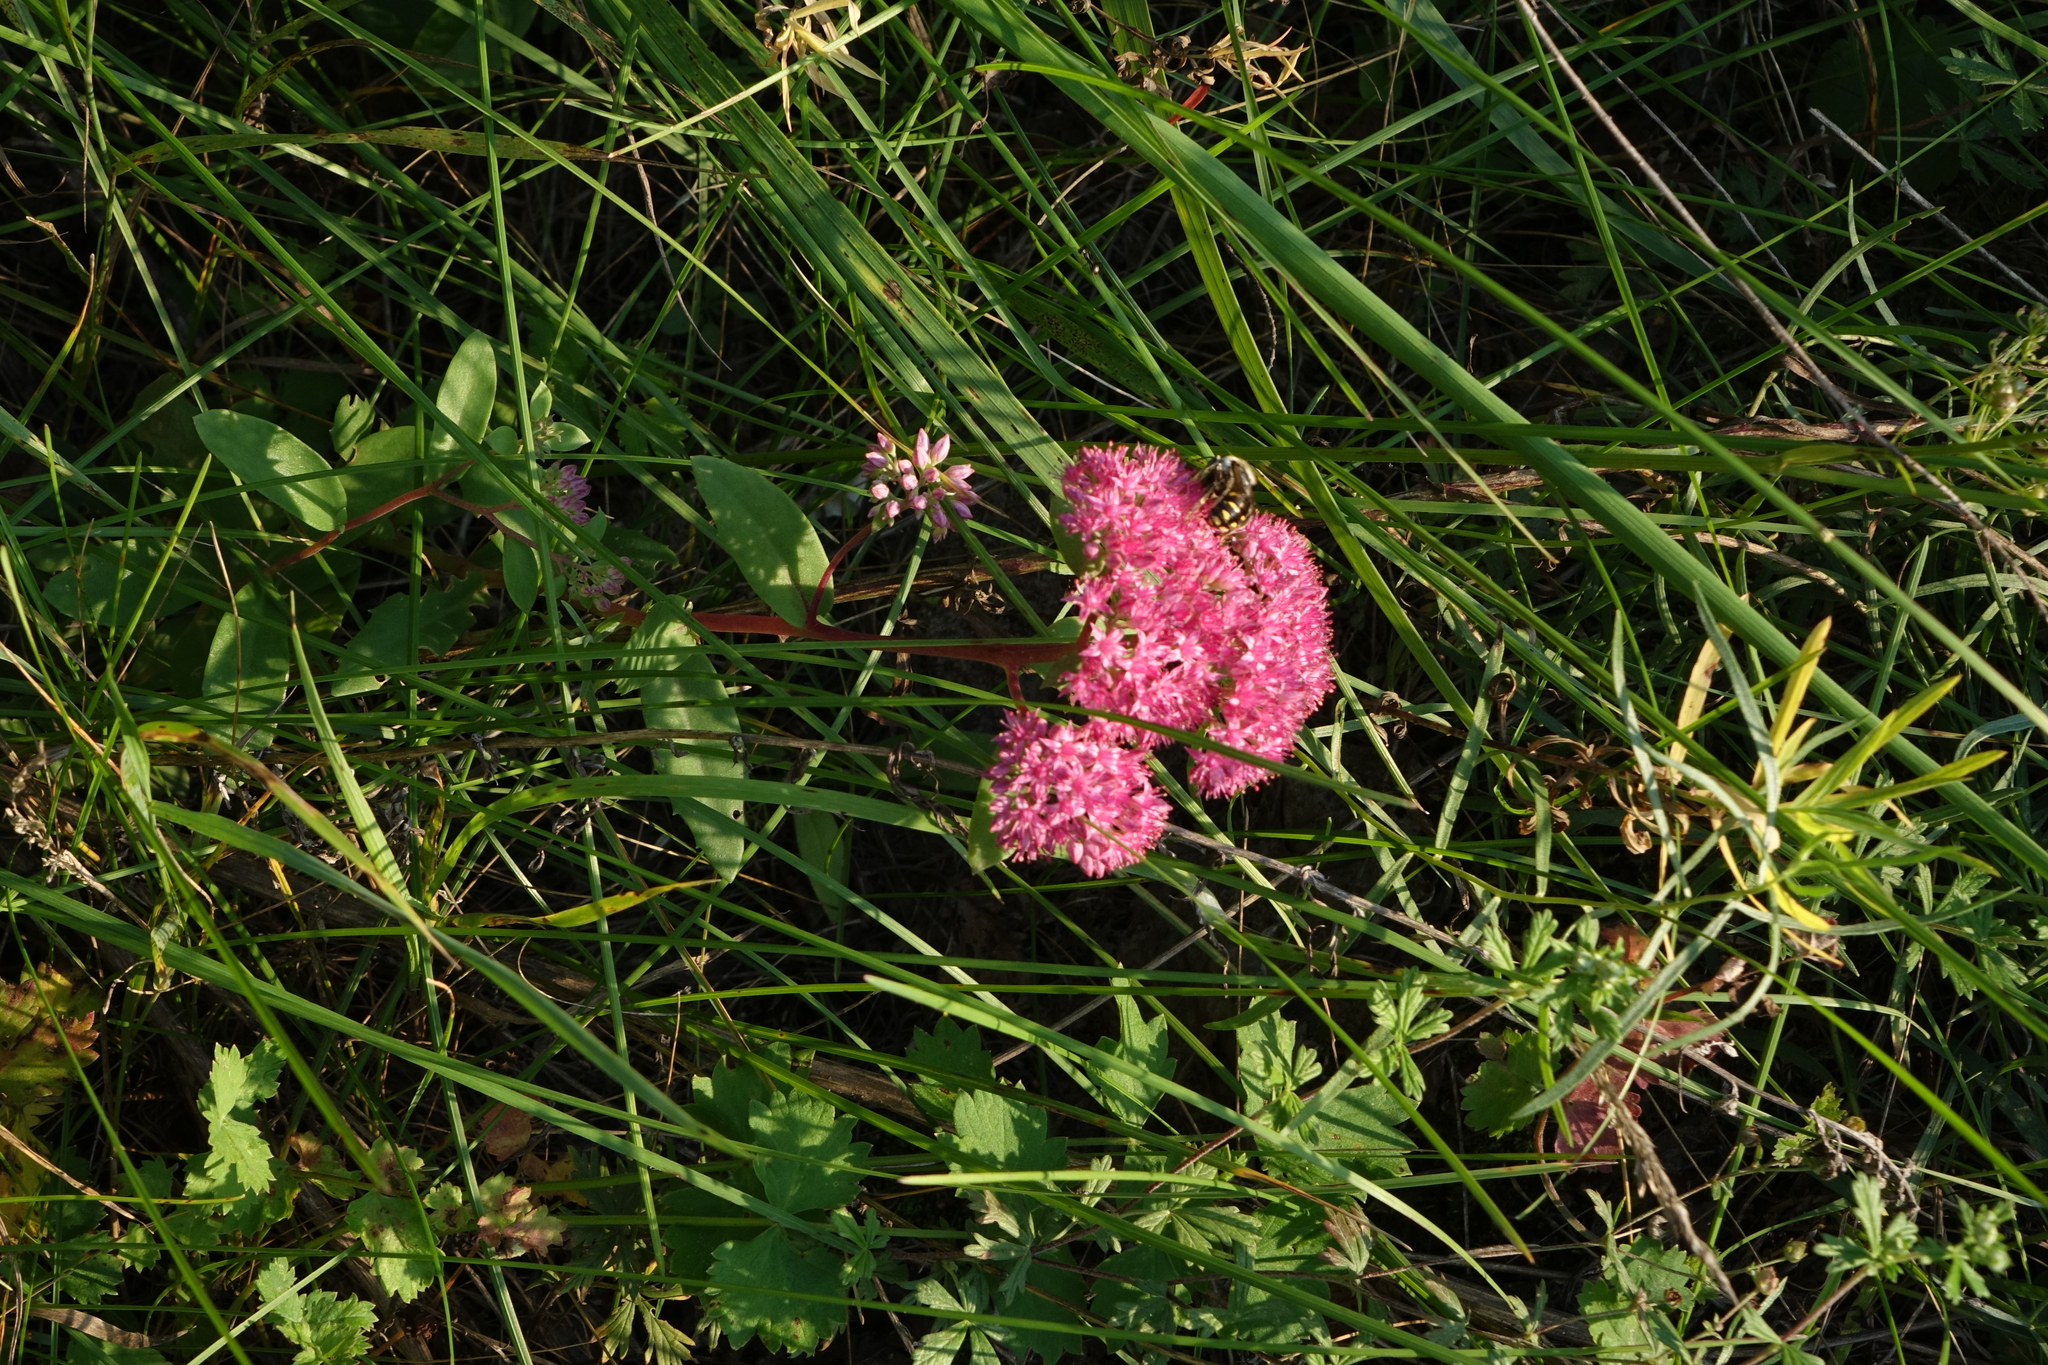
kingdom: Plantae
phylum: Tracheophyta
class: Magnoliopsida
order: Saxifragales
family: Crassulaceae
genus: Hylotelephium
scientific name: Hylotelephium telephium
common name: Live-forever
